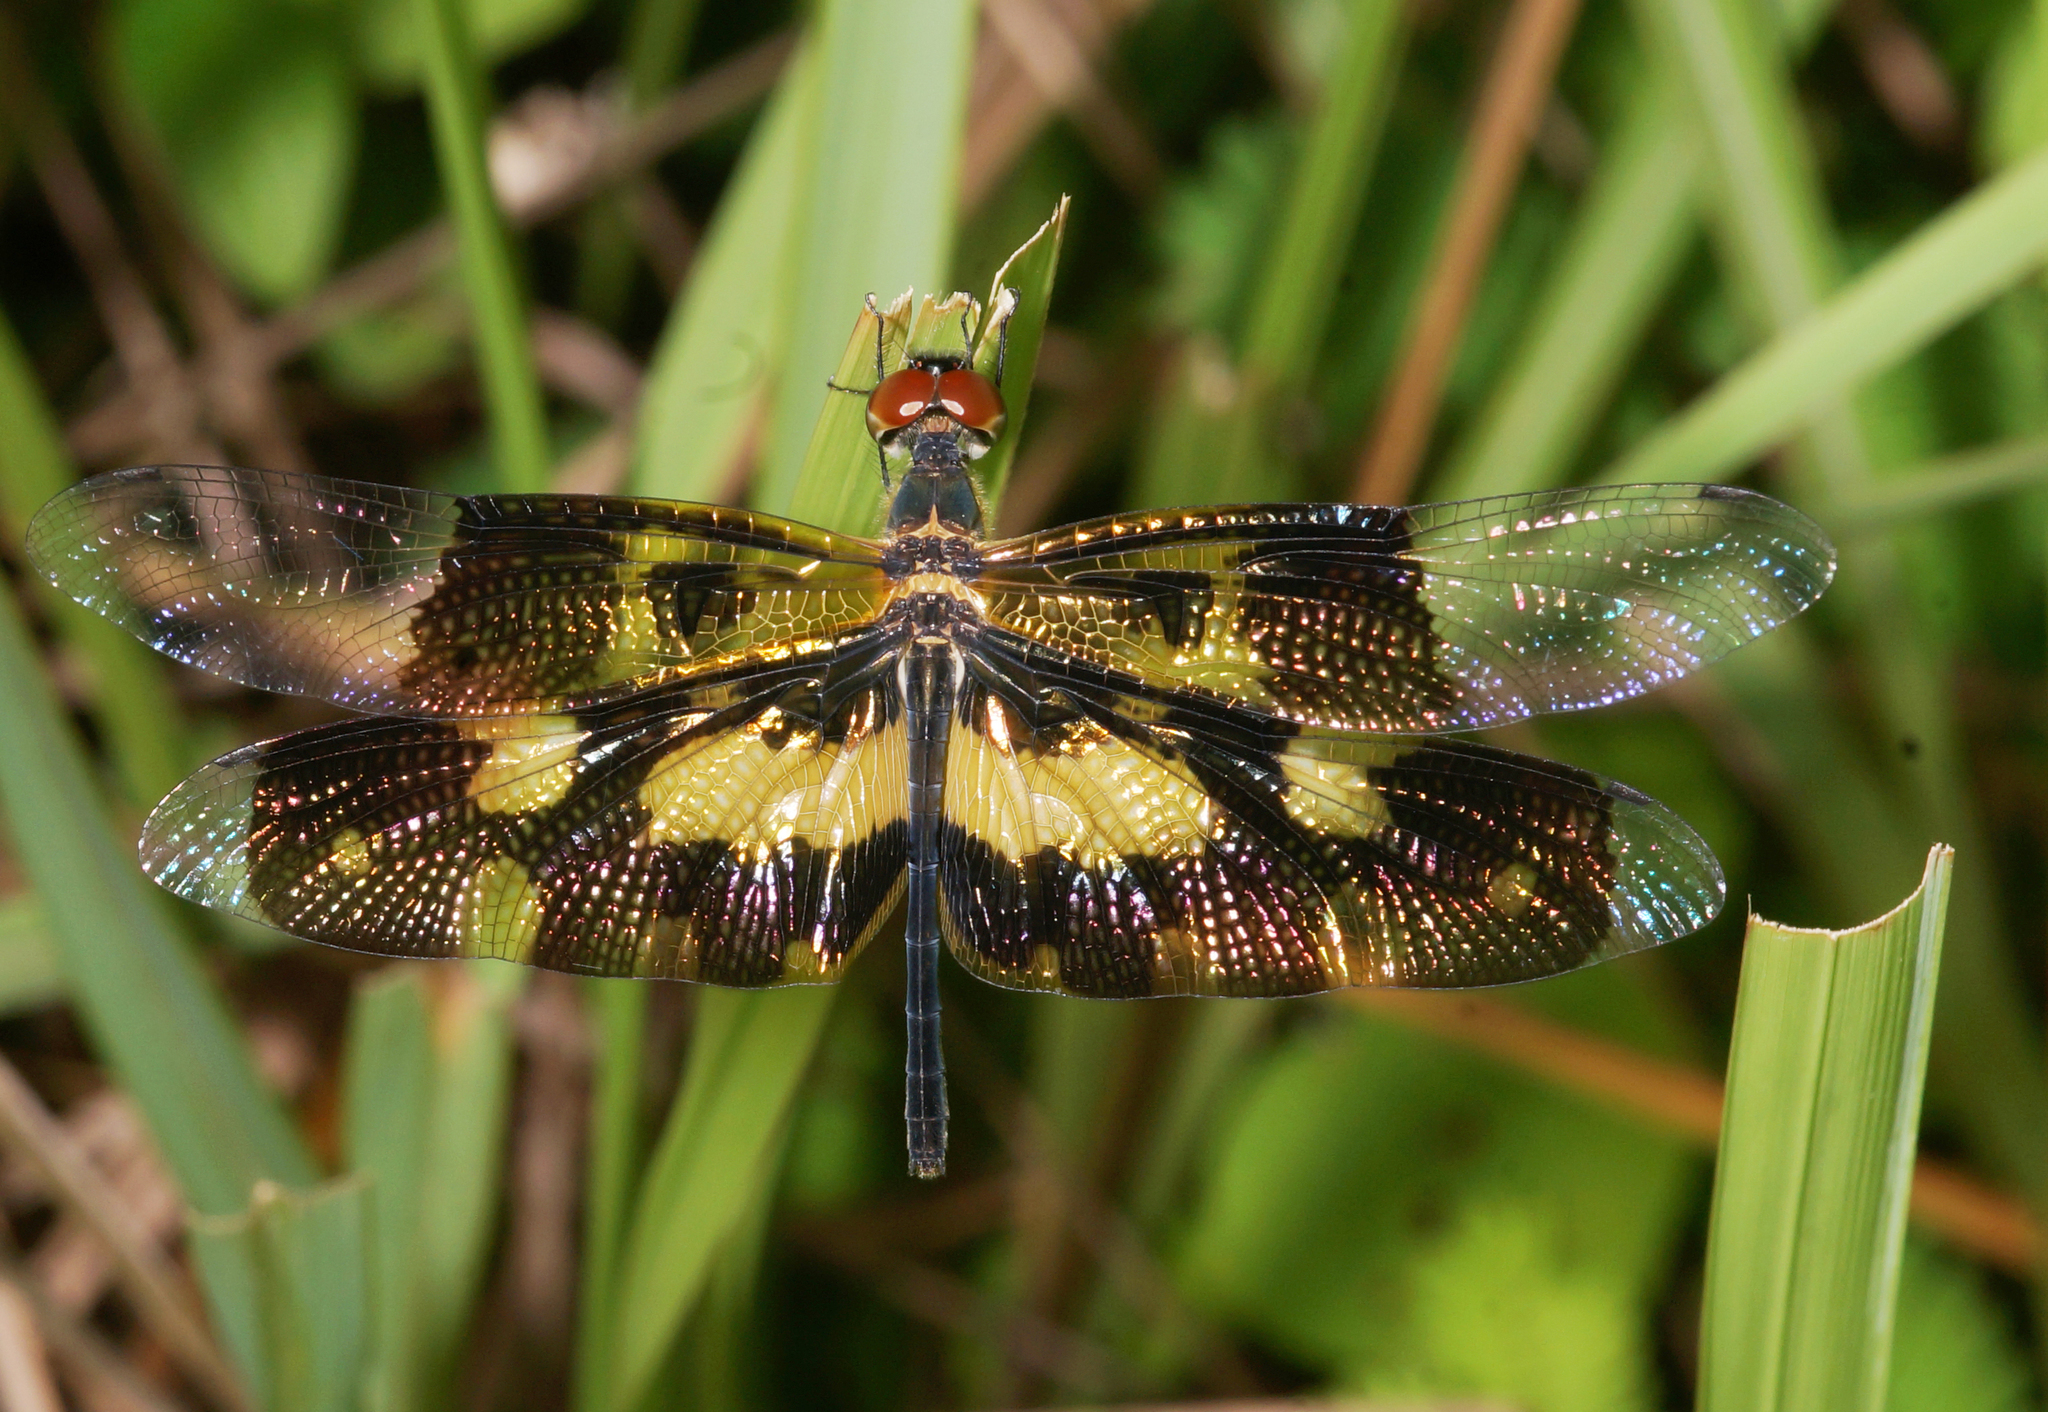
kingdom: Animalia
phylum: Arthropoda
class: Insecta
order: Odonata
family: Libellulidae
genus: Rhyothemis
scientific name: Rhyothemis variegata
